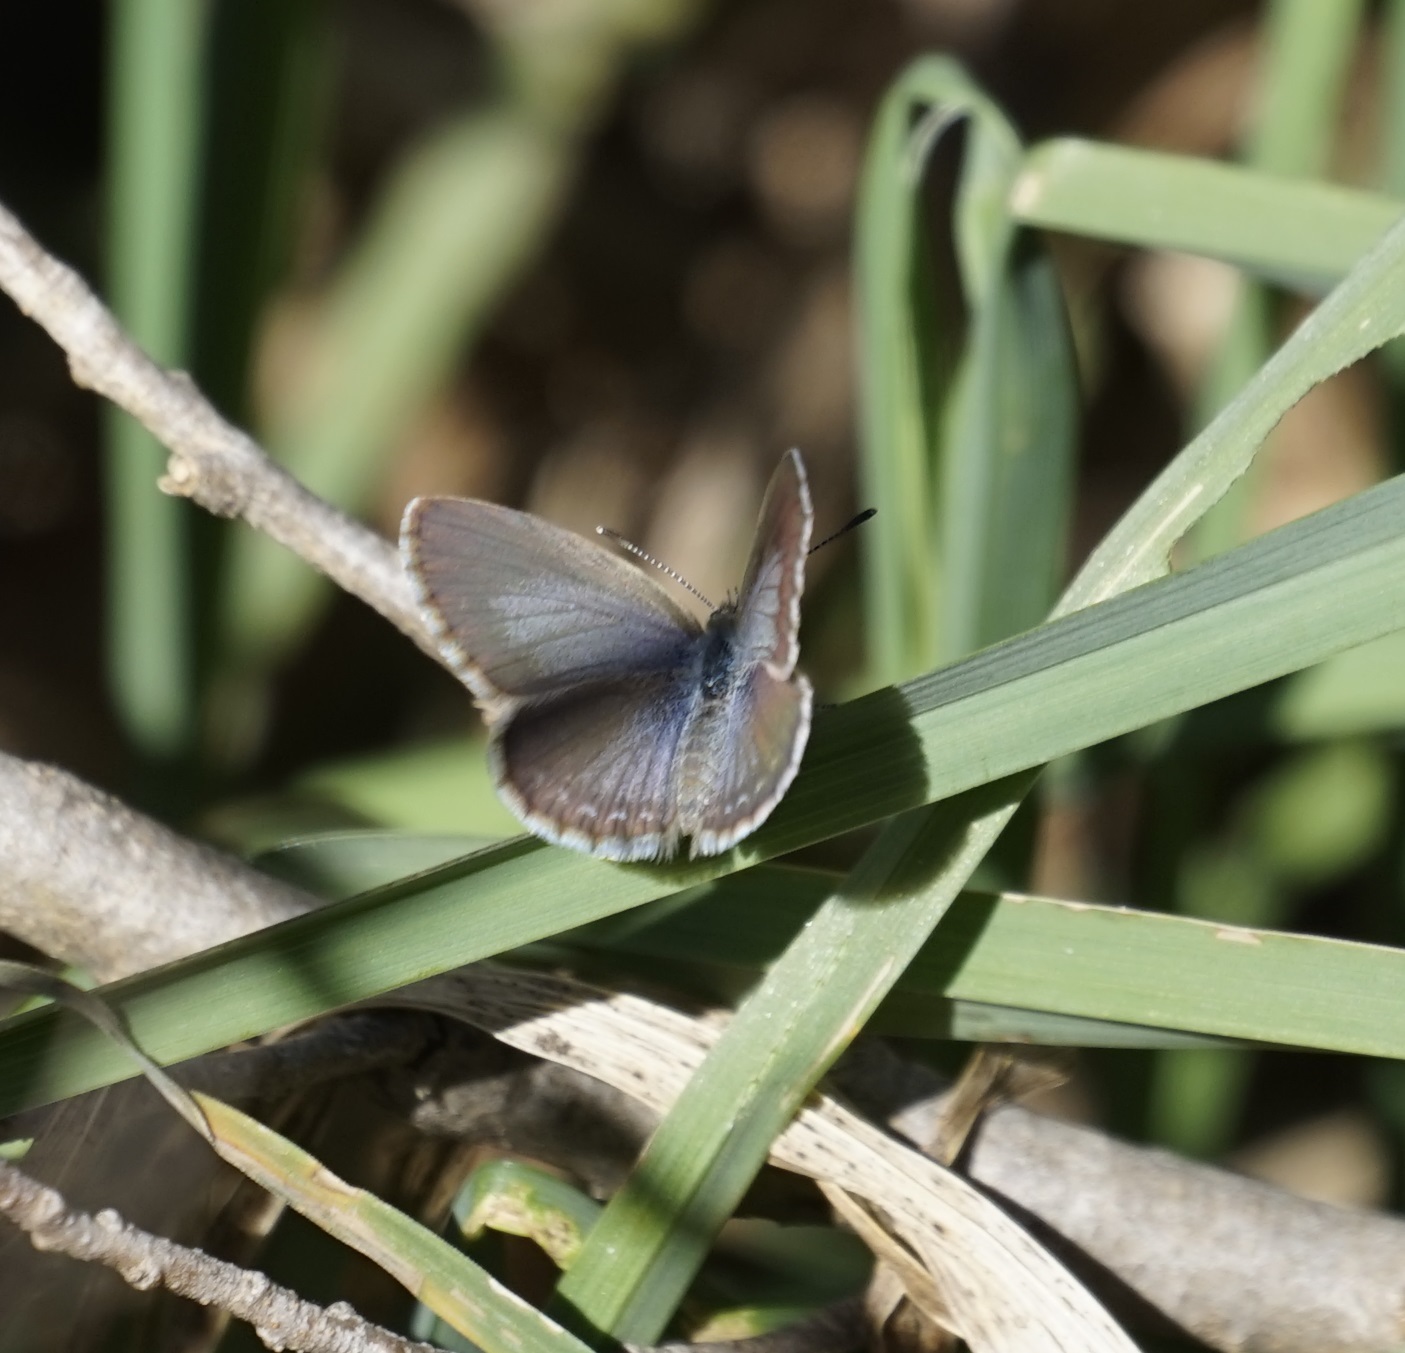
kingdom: Animalia
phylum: Arthropoda
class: Insecta
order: Lepidoptera
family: Lycaenidae
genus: Zizina
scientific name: Zizina otis
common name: Lesser grass blue
